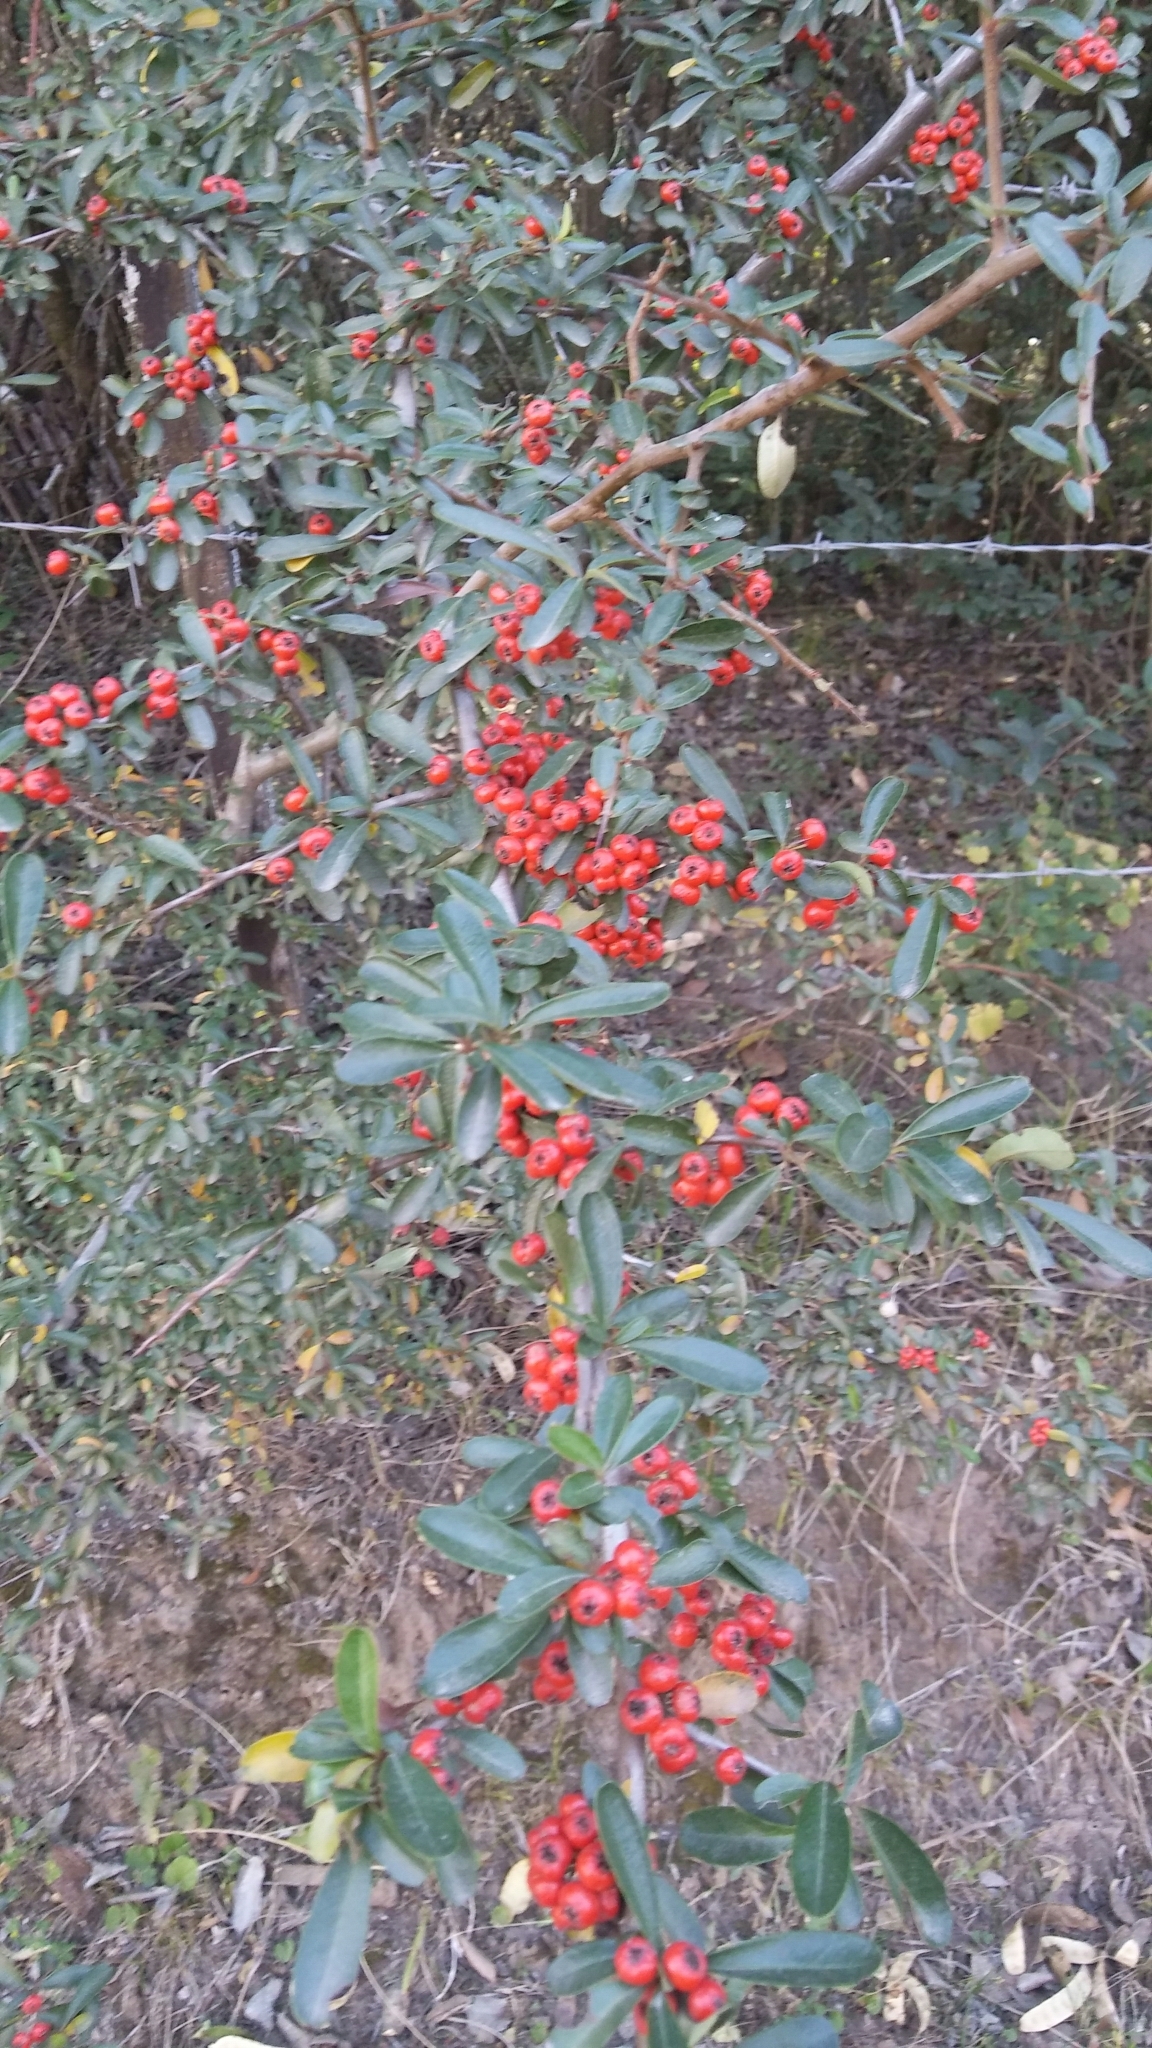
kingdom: Plantae
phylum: Tracheophyta
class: Magnoliopsida
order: Rosales
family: Rosaceae
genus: Pyracantha
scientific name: Pyracantha coccinea
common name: Firethorn
